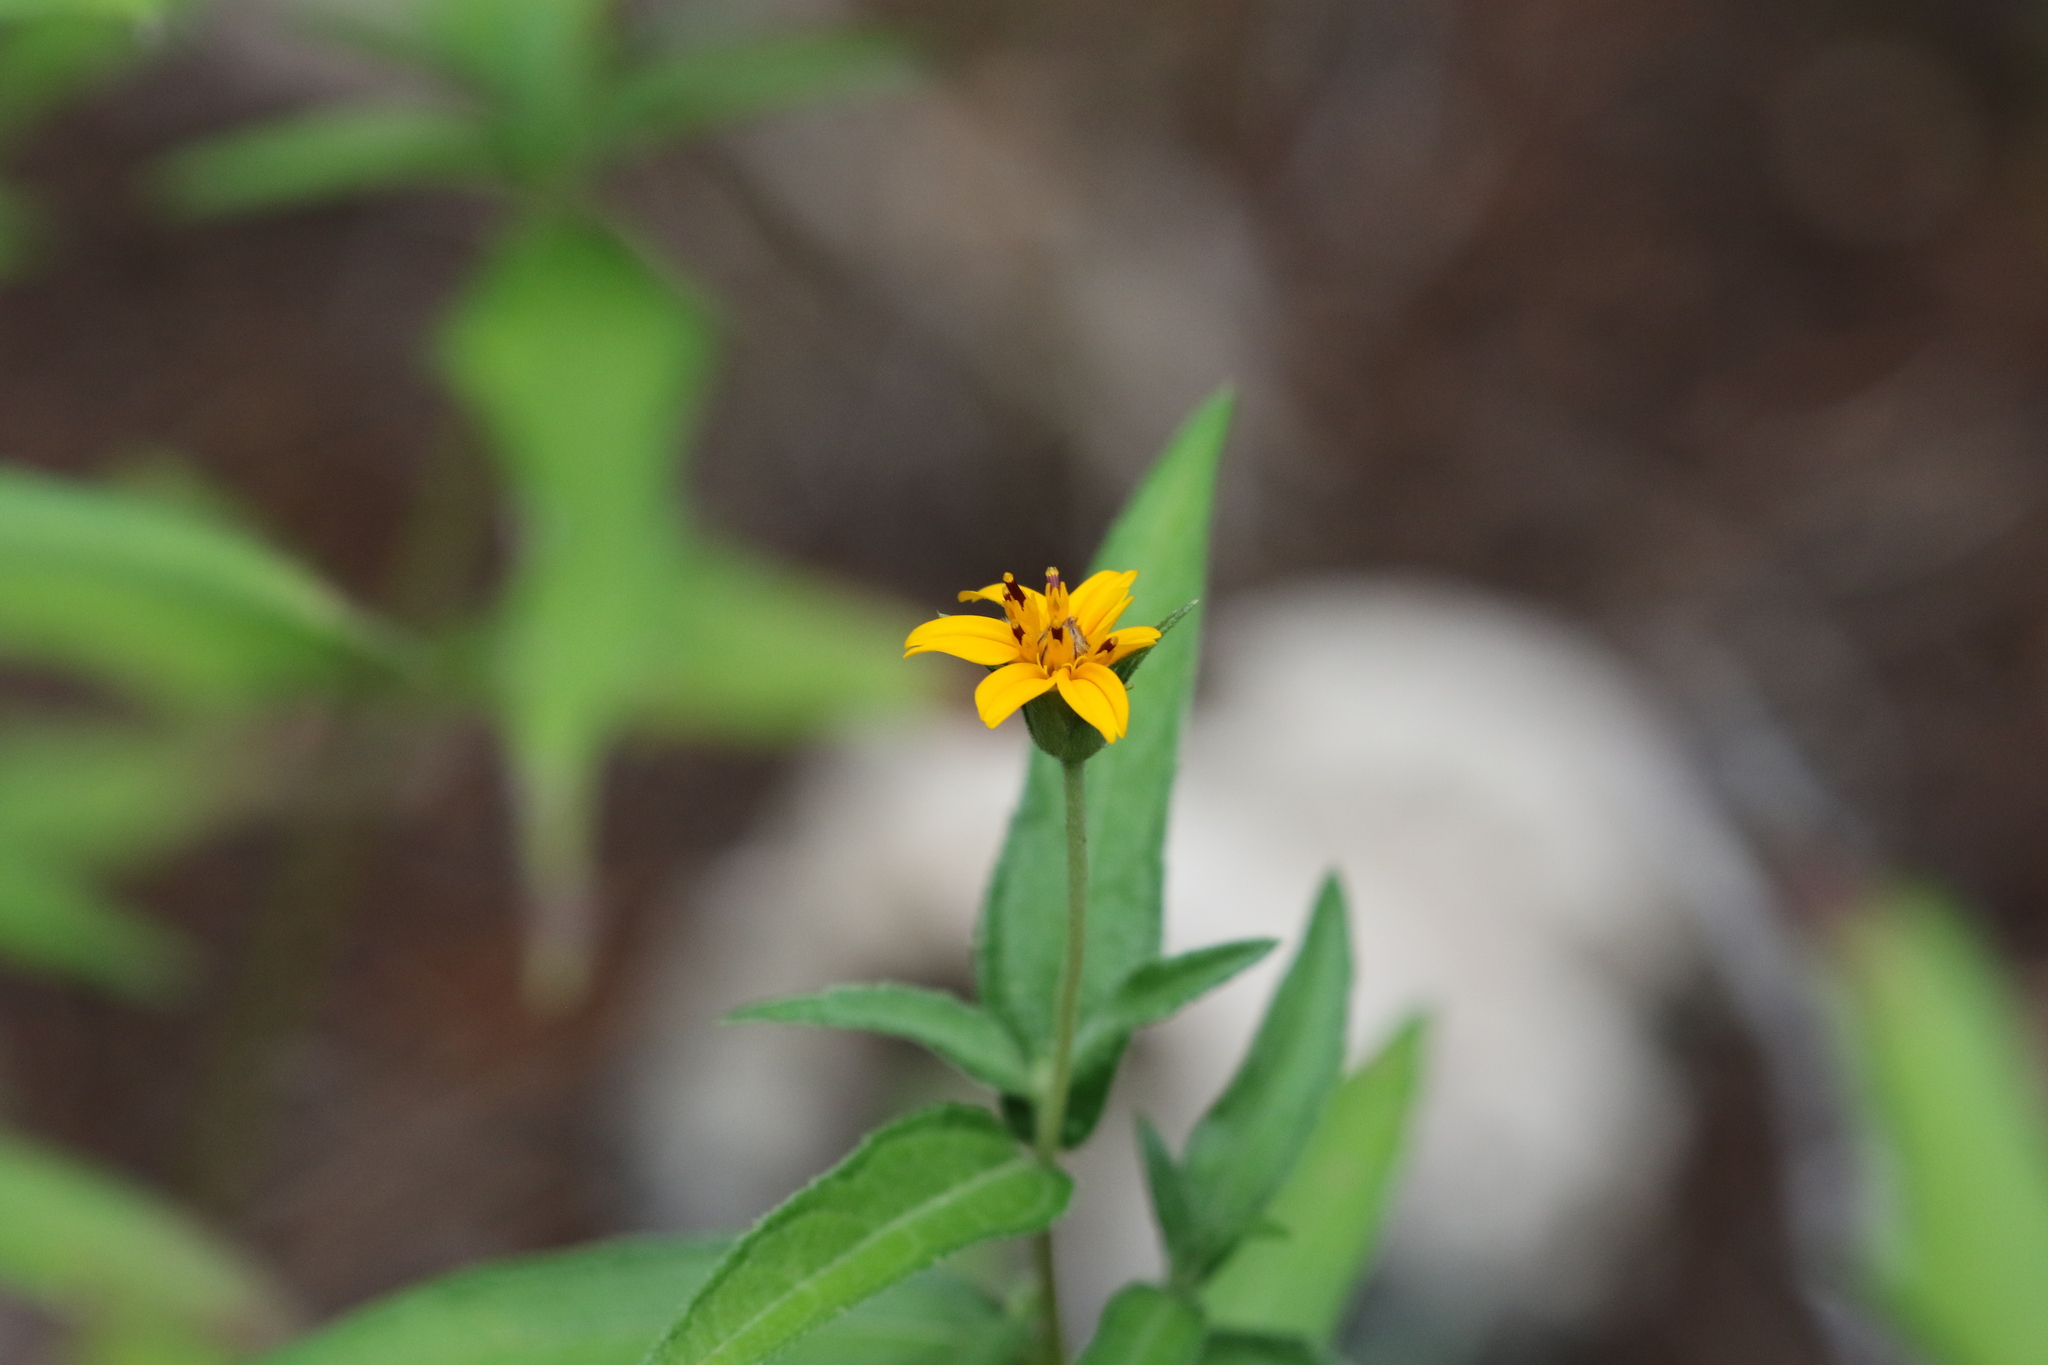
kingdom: Plantae
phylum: Tracheophyta
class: Magnoliopsida
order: Asterales
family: Asteraceae
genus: Wedelia
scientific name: Wedelia acapulcensis
